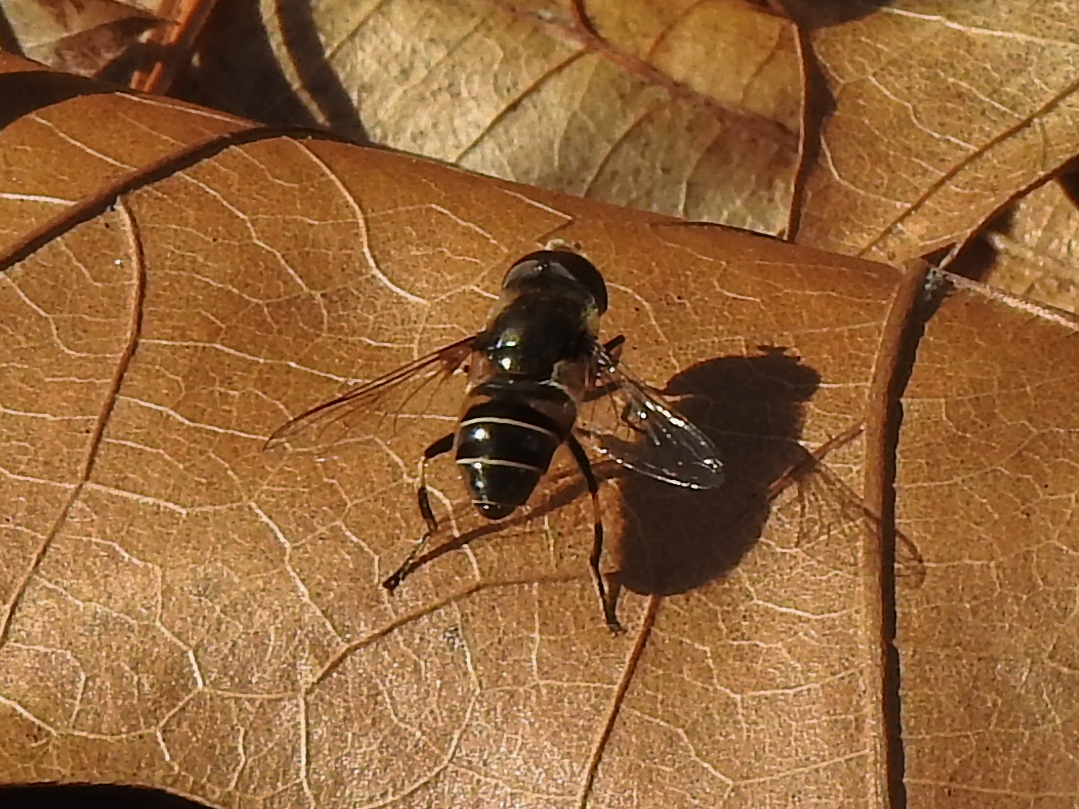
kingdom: Animalia
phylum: Arthropoda
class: Insecta
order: Diptera
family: Syrphidae
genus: Eristalis
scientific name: Eristalis dimidiata
